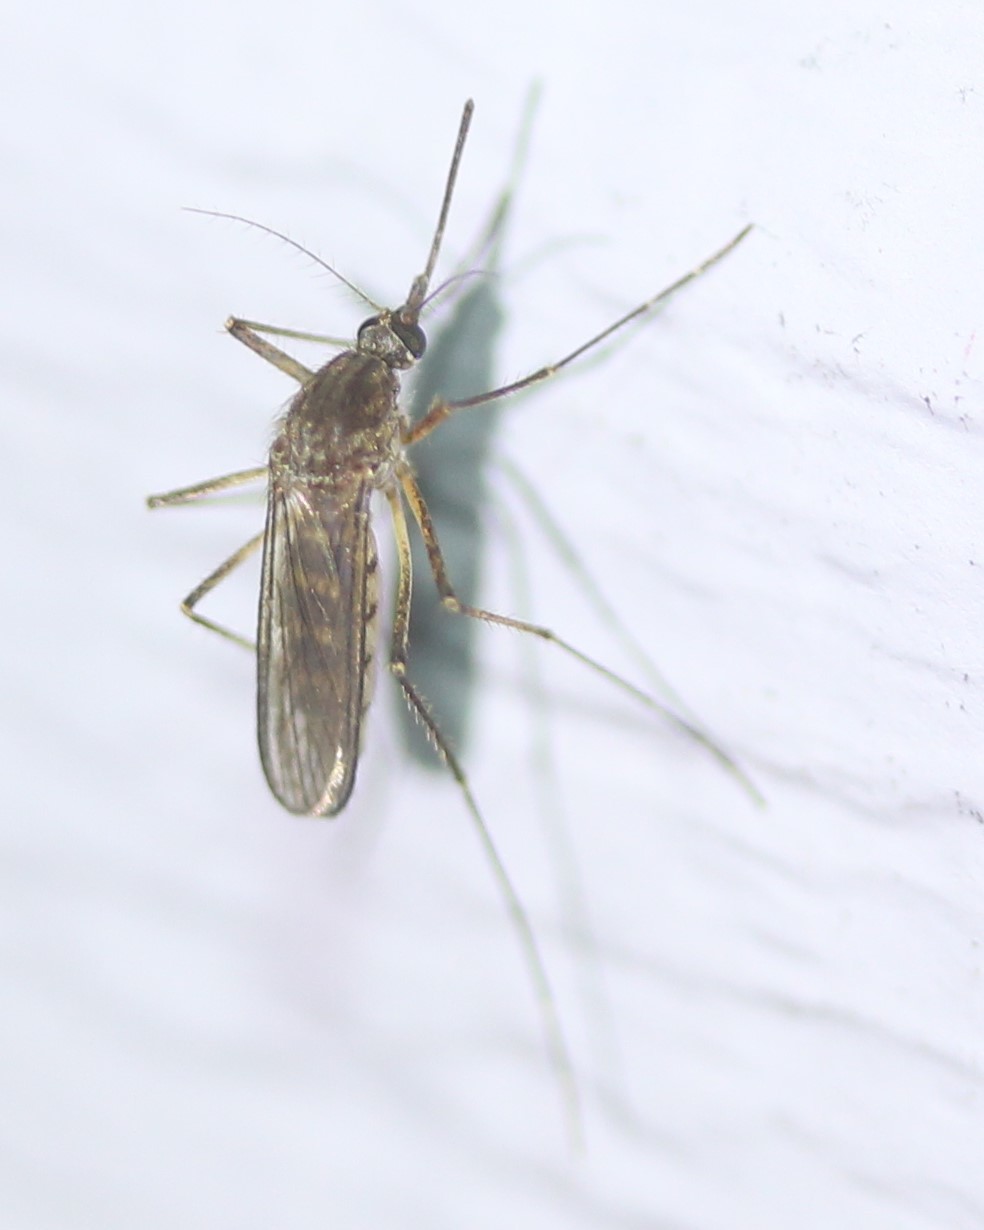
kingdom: Animalia
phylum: Arthropoda
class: Insecta
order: Diptera
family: Culicidae
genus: Aedes
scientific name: Aedes vexans
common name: Inland floodwater mosquito
